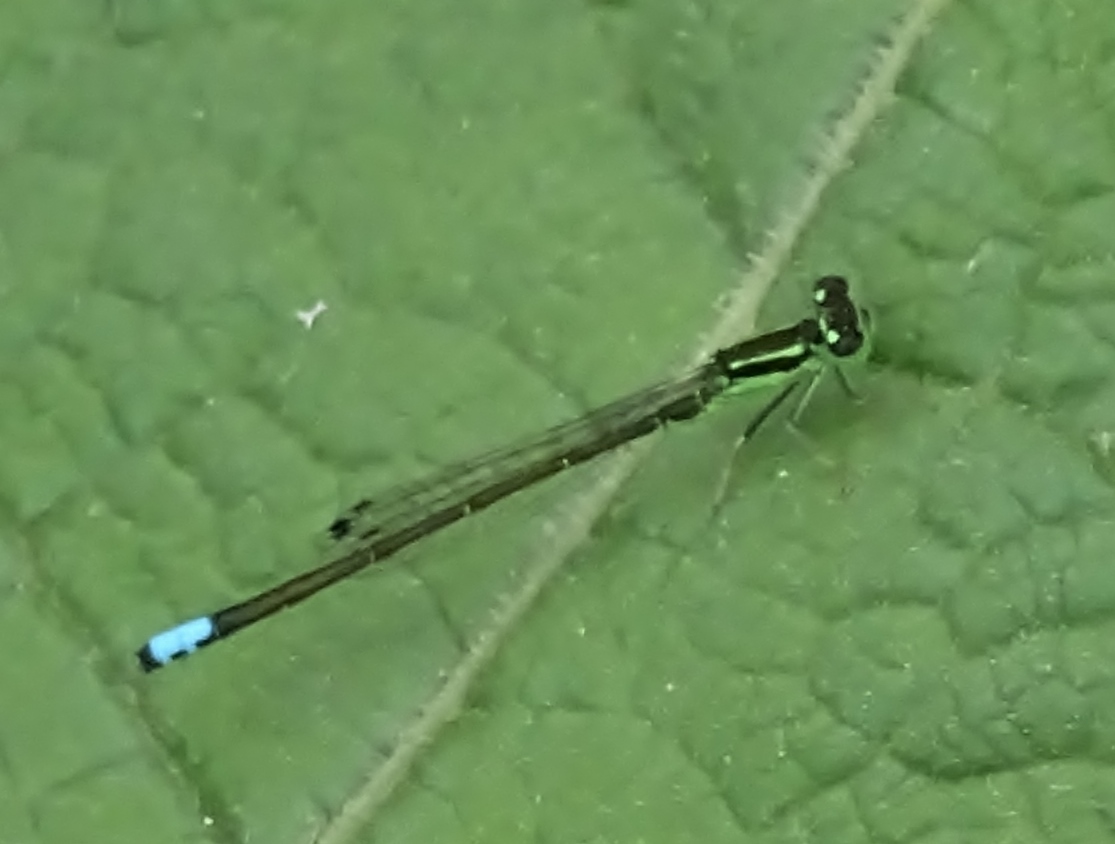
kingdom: Animalia
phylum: Arthropoda
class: Insecta
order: Odonata
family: Coenagrionidae
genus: Ischnura
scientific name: Ischnura verticalis
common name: Eastern forktail
